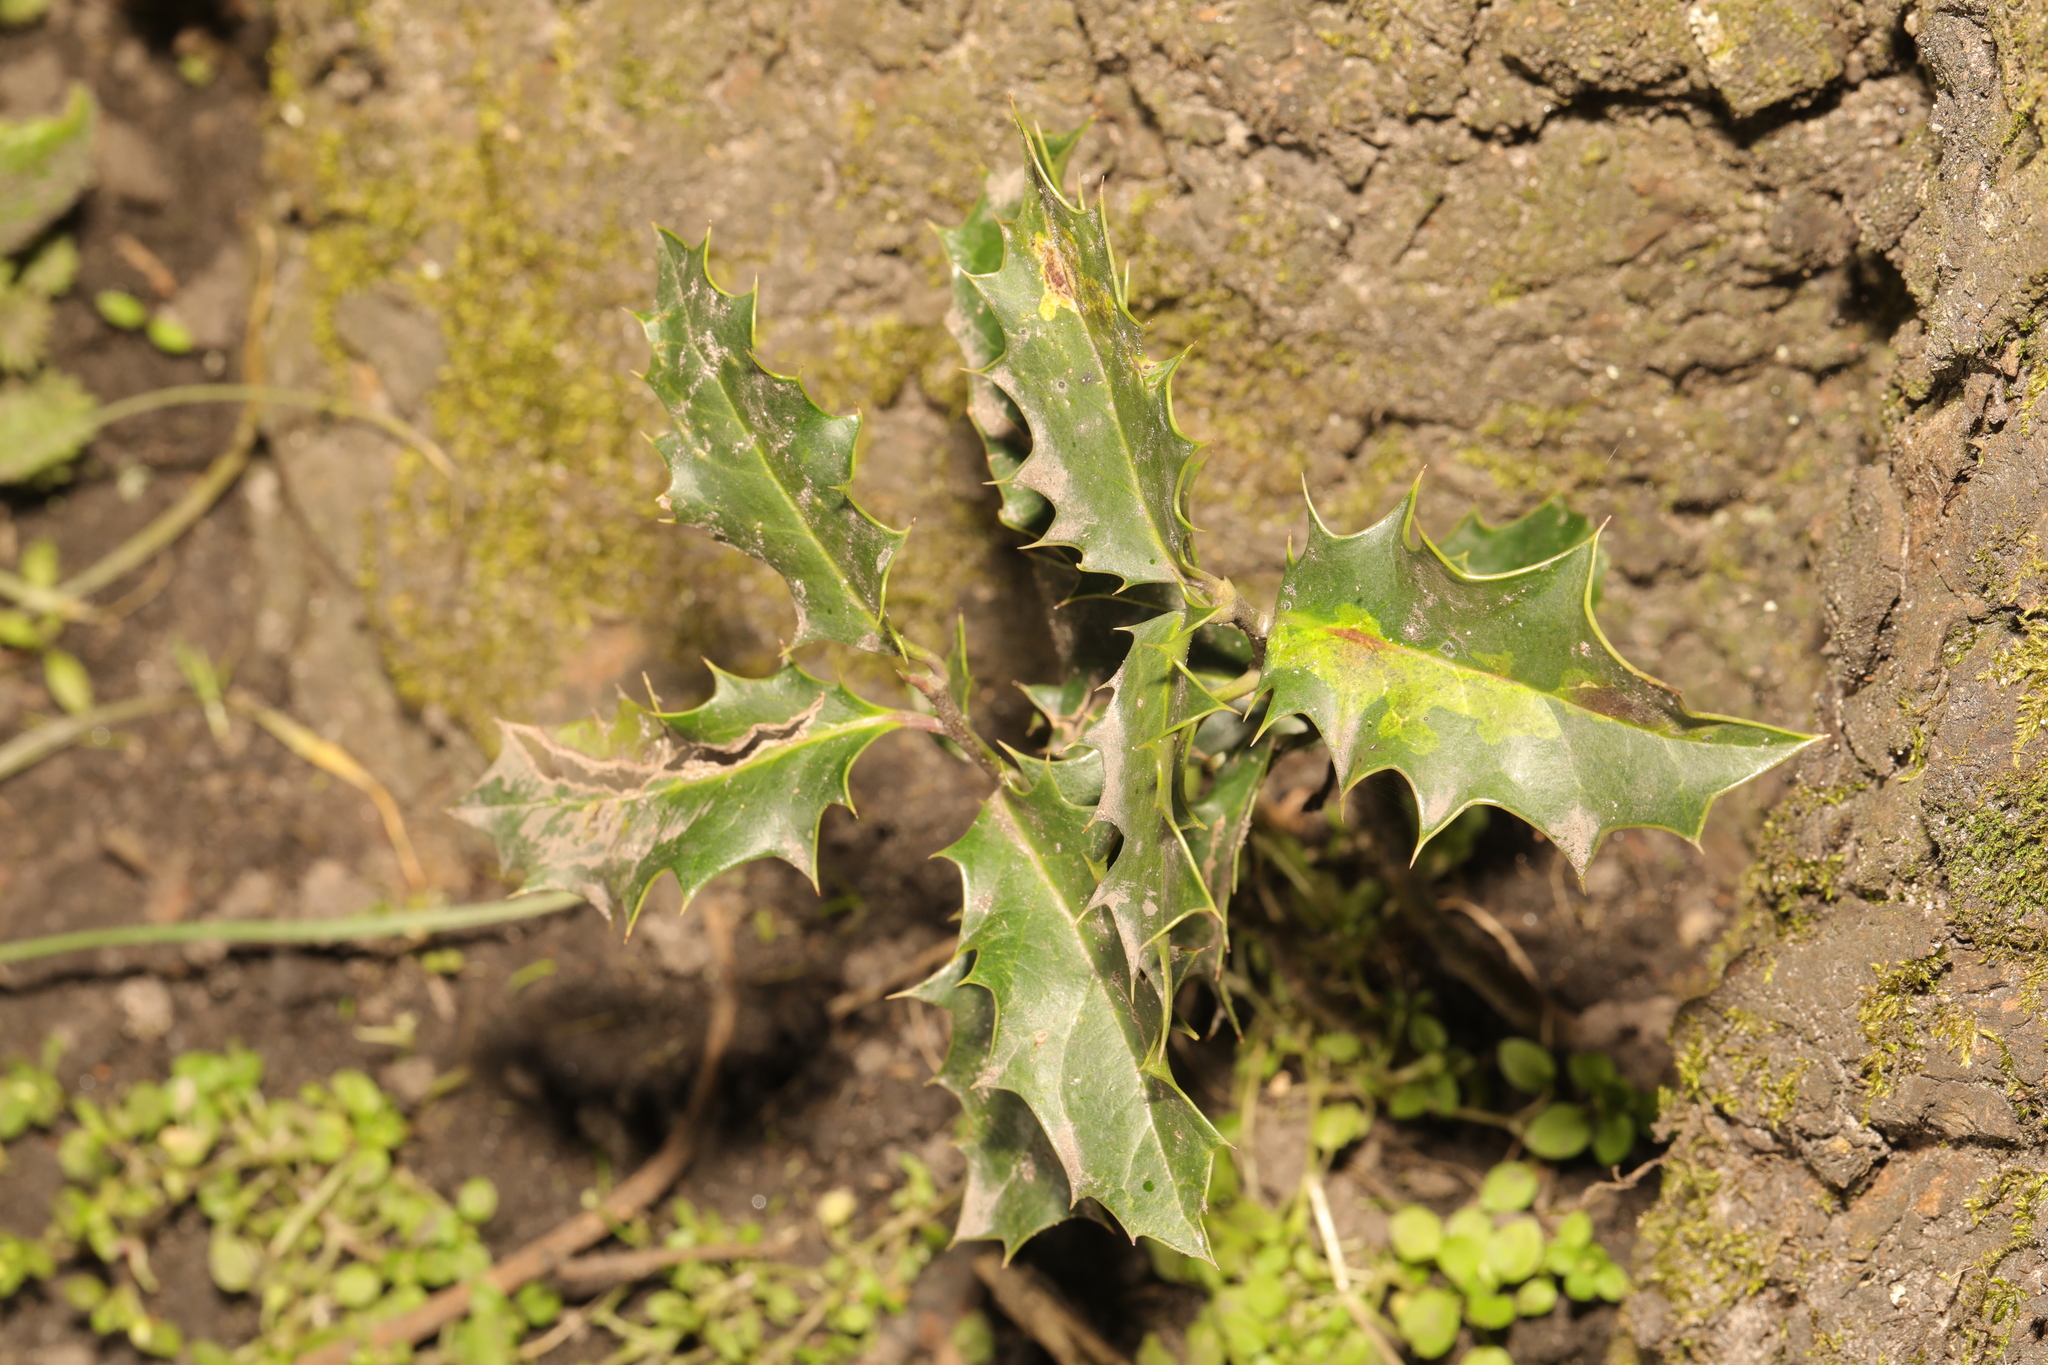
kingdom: Plantae
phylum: Tracheophyta
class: Magnoliopsida
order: Aquifoliales
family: Aquifoliaceae
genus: Ilex
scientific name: Ilex aquifolium
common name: English holly
